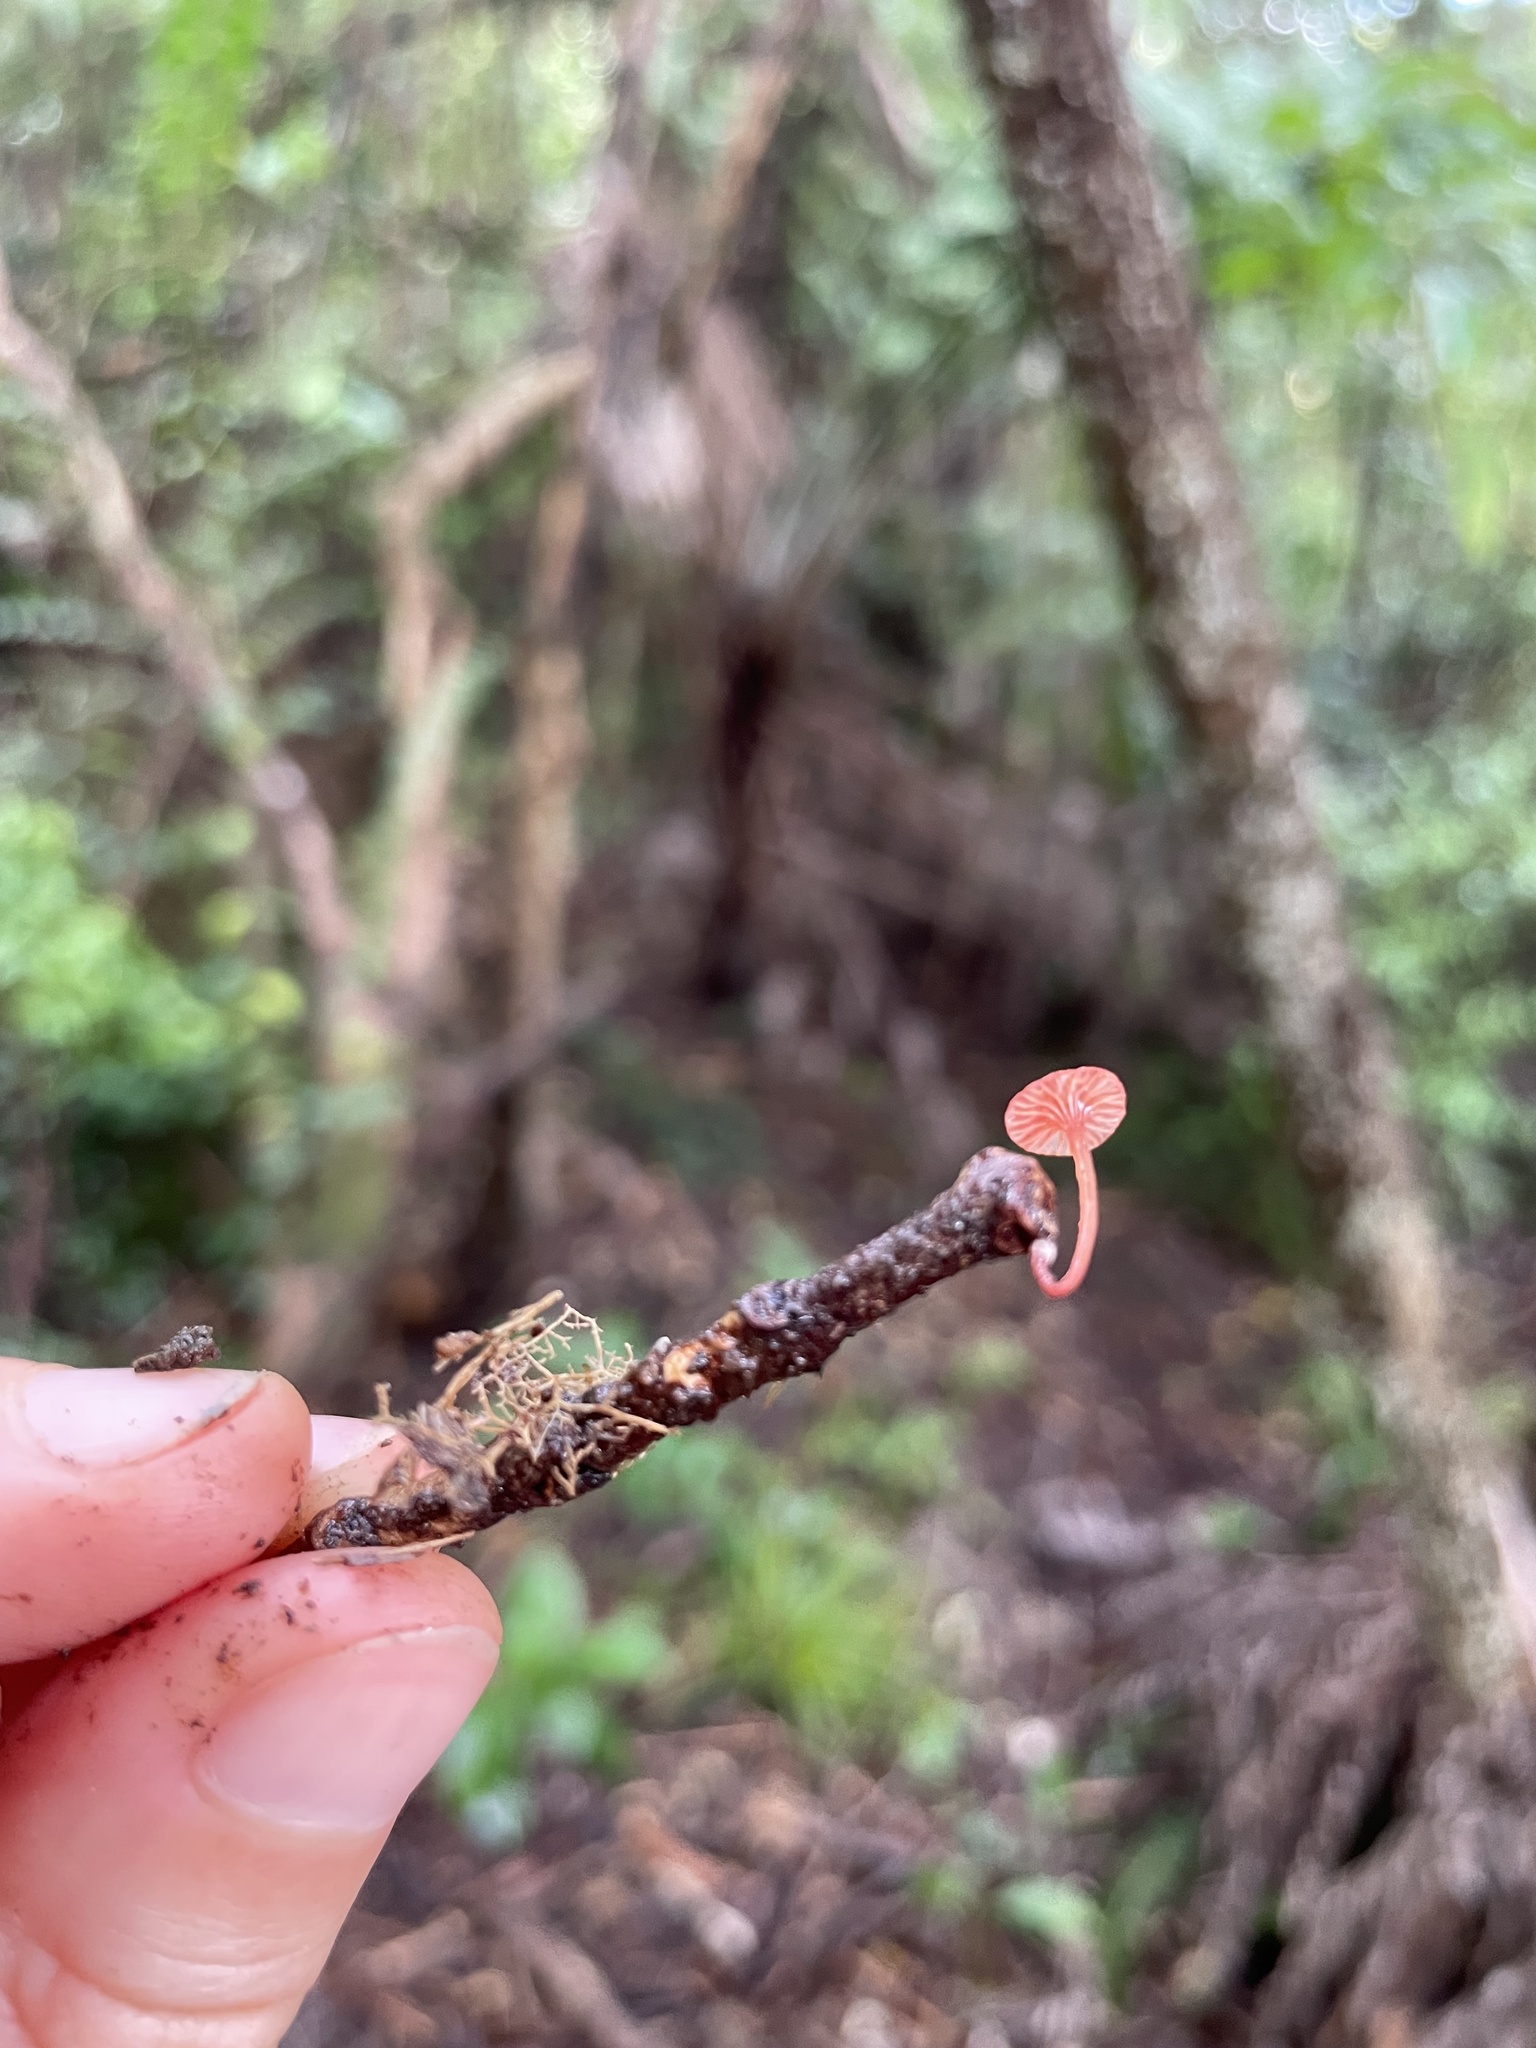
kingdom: Fungi
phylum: Basidiomycota
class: Agaricomycetes
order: Agaricales
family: Mycenaceae
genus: Cruentomycena
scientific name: Cruentomycena viscidocruenta
